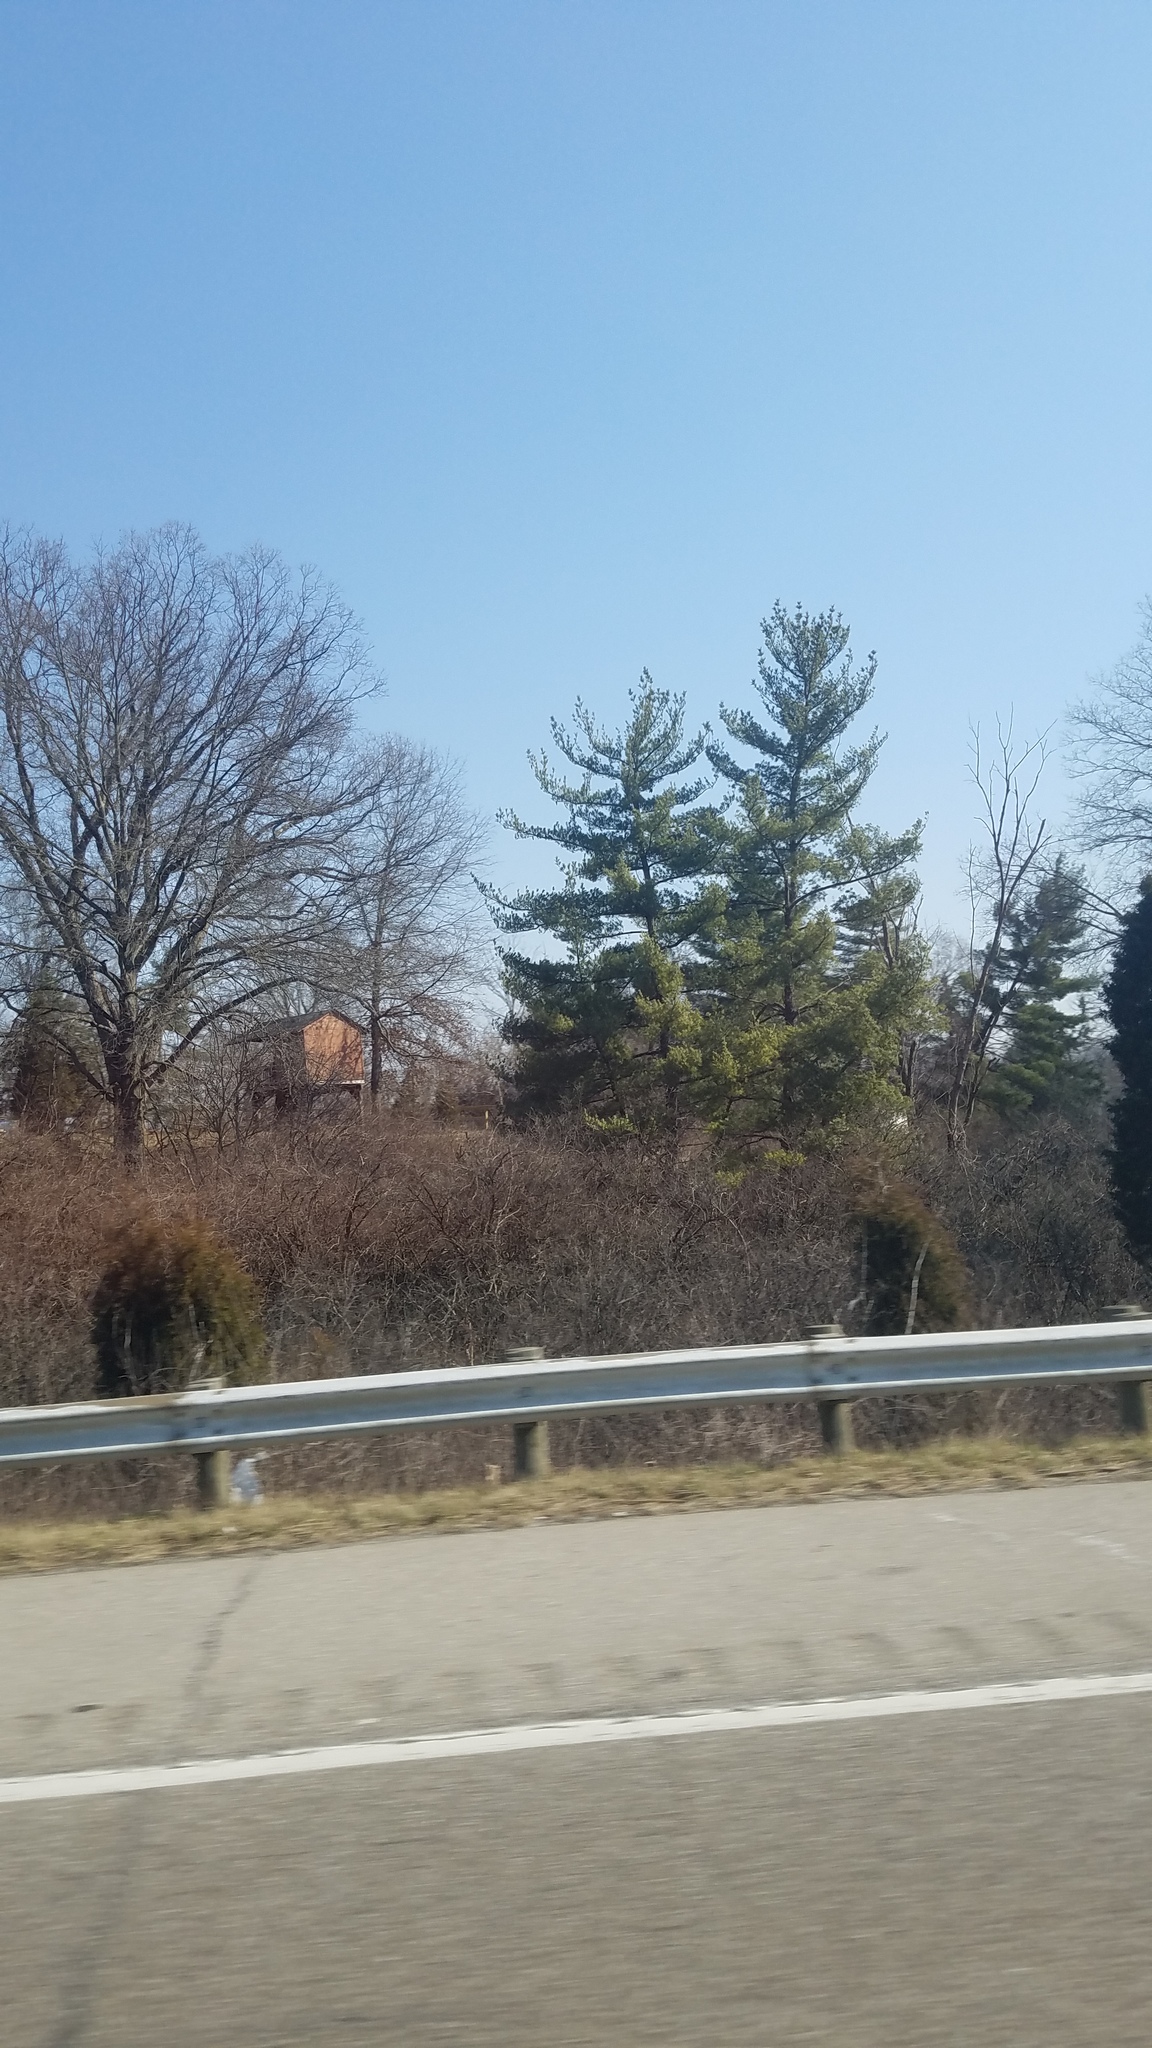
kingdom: Plantae
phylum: Tracheophyta
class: Pinopsida
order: Pinales
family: Pinaceae
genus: Pinus
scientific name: Pinus strobus
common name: Weymouth pine
